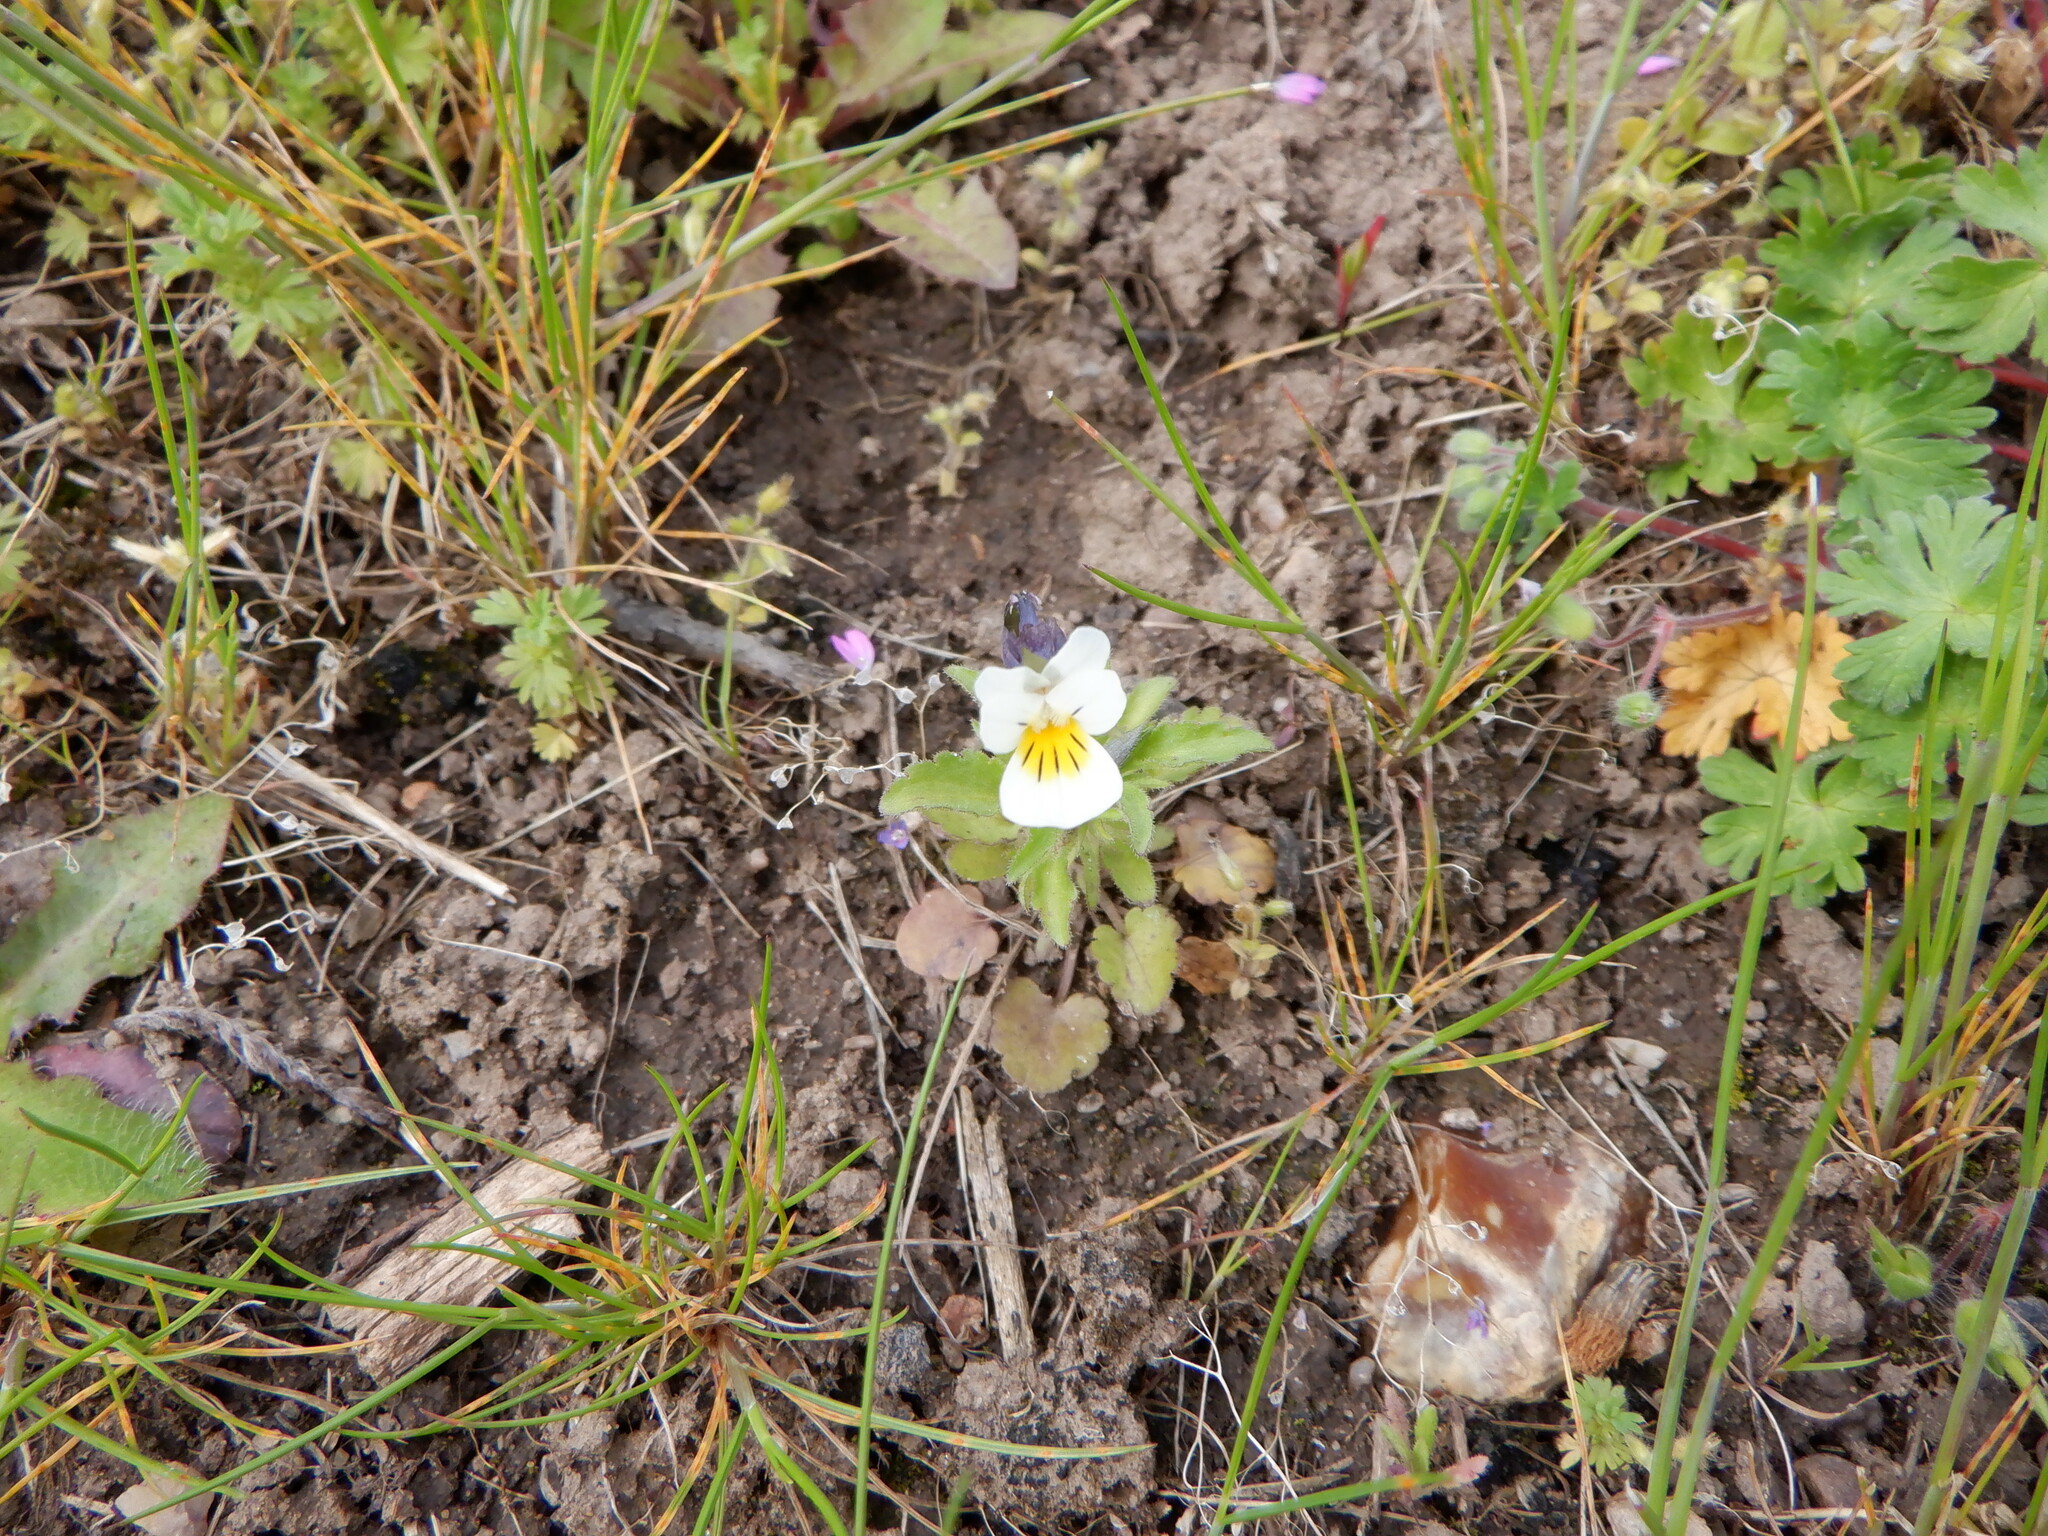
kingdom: Plantae
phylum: Tracheophyta
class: Magnoliopsida
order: Malpighiales
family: Violaceae
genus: Viola
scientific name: Viola arvensis
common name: Field pansy
